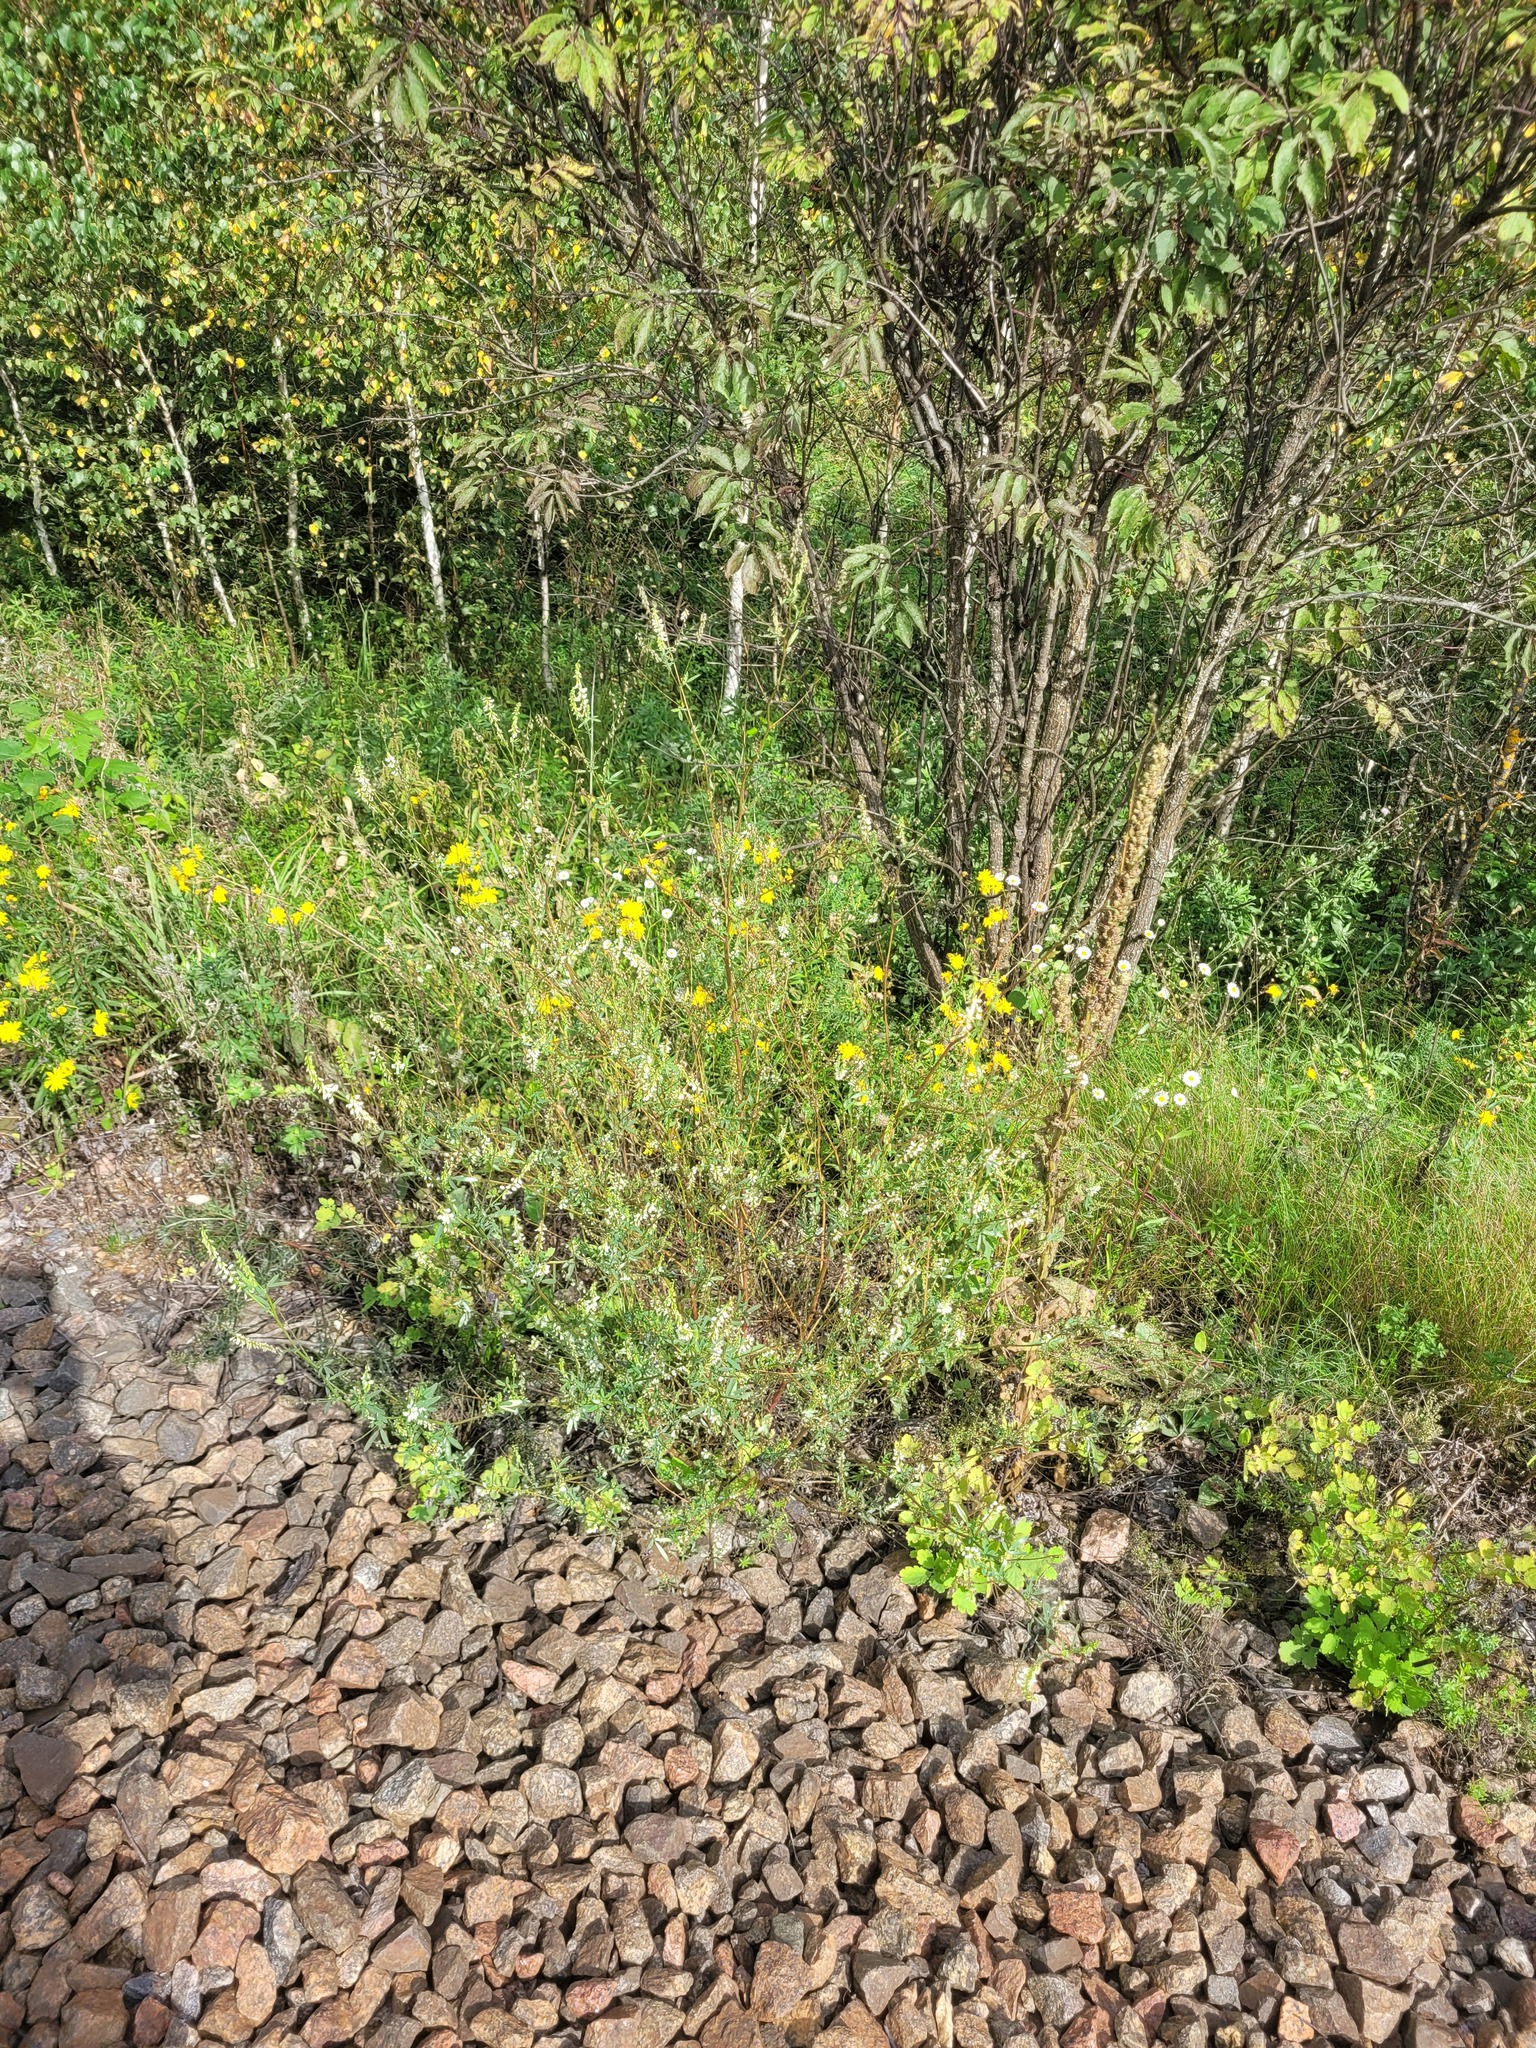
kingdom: Plantae
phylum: Tracheophyta
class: Magnoliopsida
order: Fabales
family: Fabaceae
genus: Melilotus
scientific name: Melilotus albus
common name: White melilot
